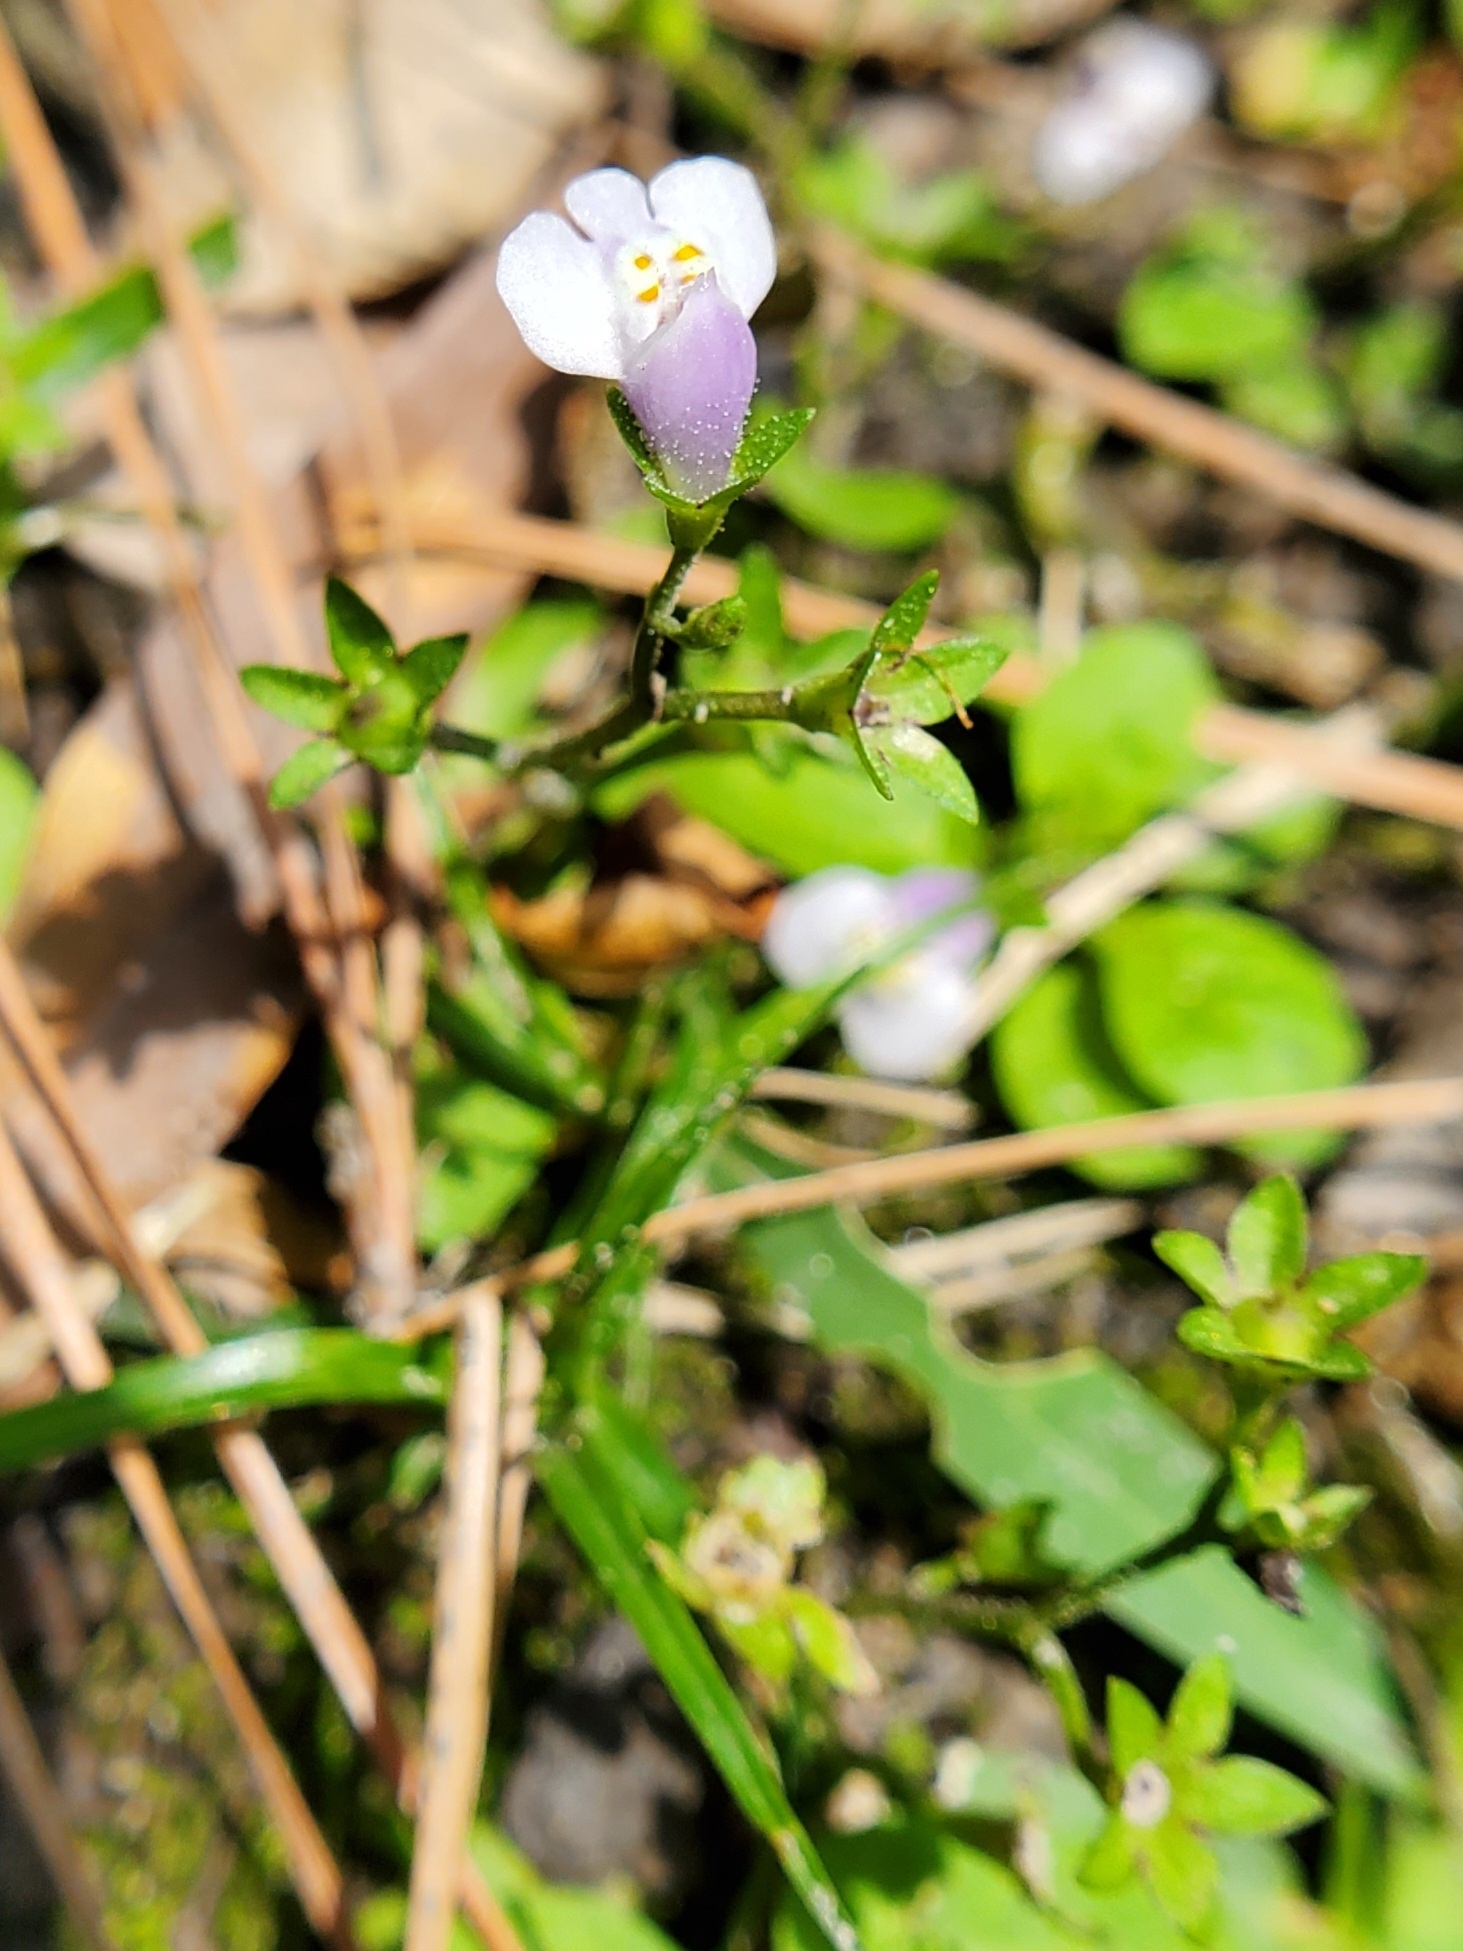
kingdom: Plantae
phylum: Tracheophyta
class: Magnoliopsida
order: Lamiales
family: Mazaceae
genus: Mazus
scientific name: Mazus pumilus
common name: Japanese mazus
